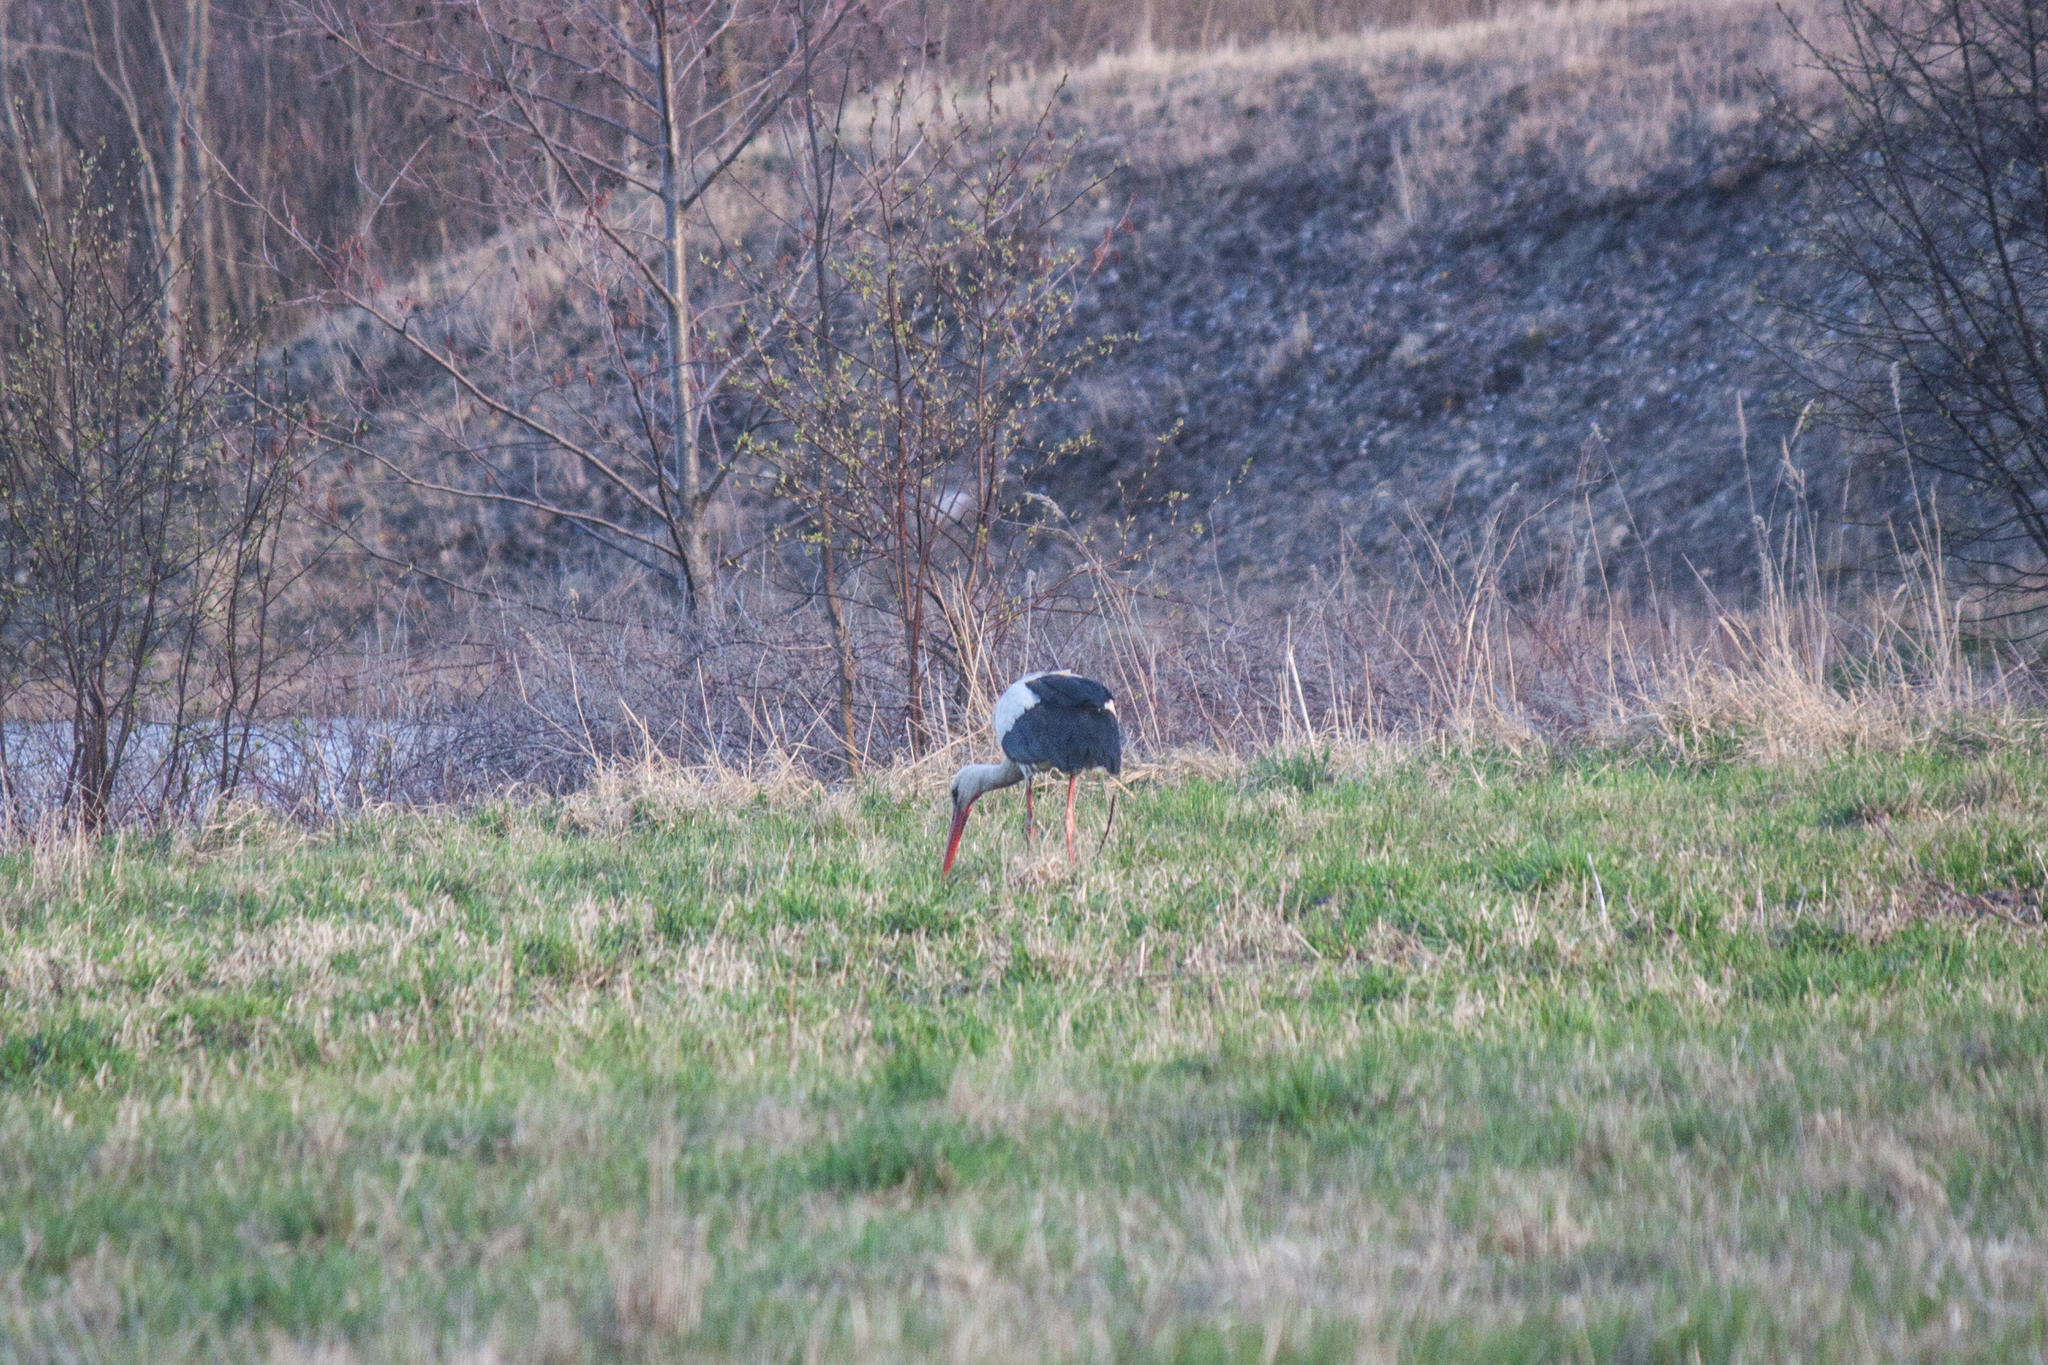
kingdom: Animalia
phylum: Chordata
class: Aves
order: Ciconiiformes
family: Ciconiidae
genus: Ciconia
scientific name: Ciconia ciconia
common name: White stork
